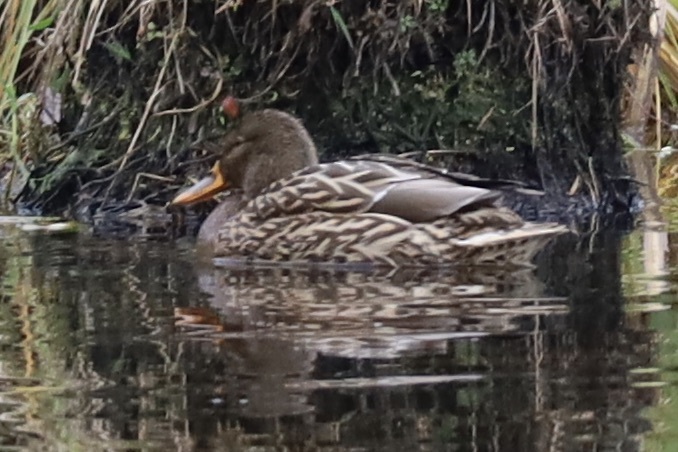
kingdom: Animalia
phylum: Chordata
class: Aves
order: Anseriformes
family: Anatidae
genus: Anas
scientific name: Anas platyrhynchos
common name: Mallard
